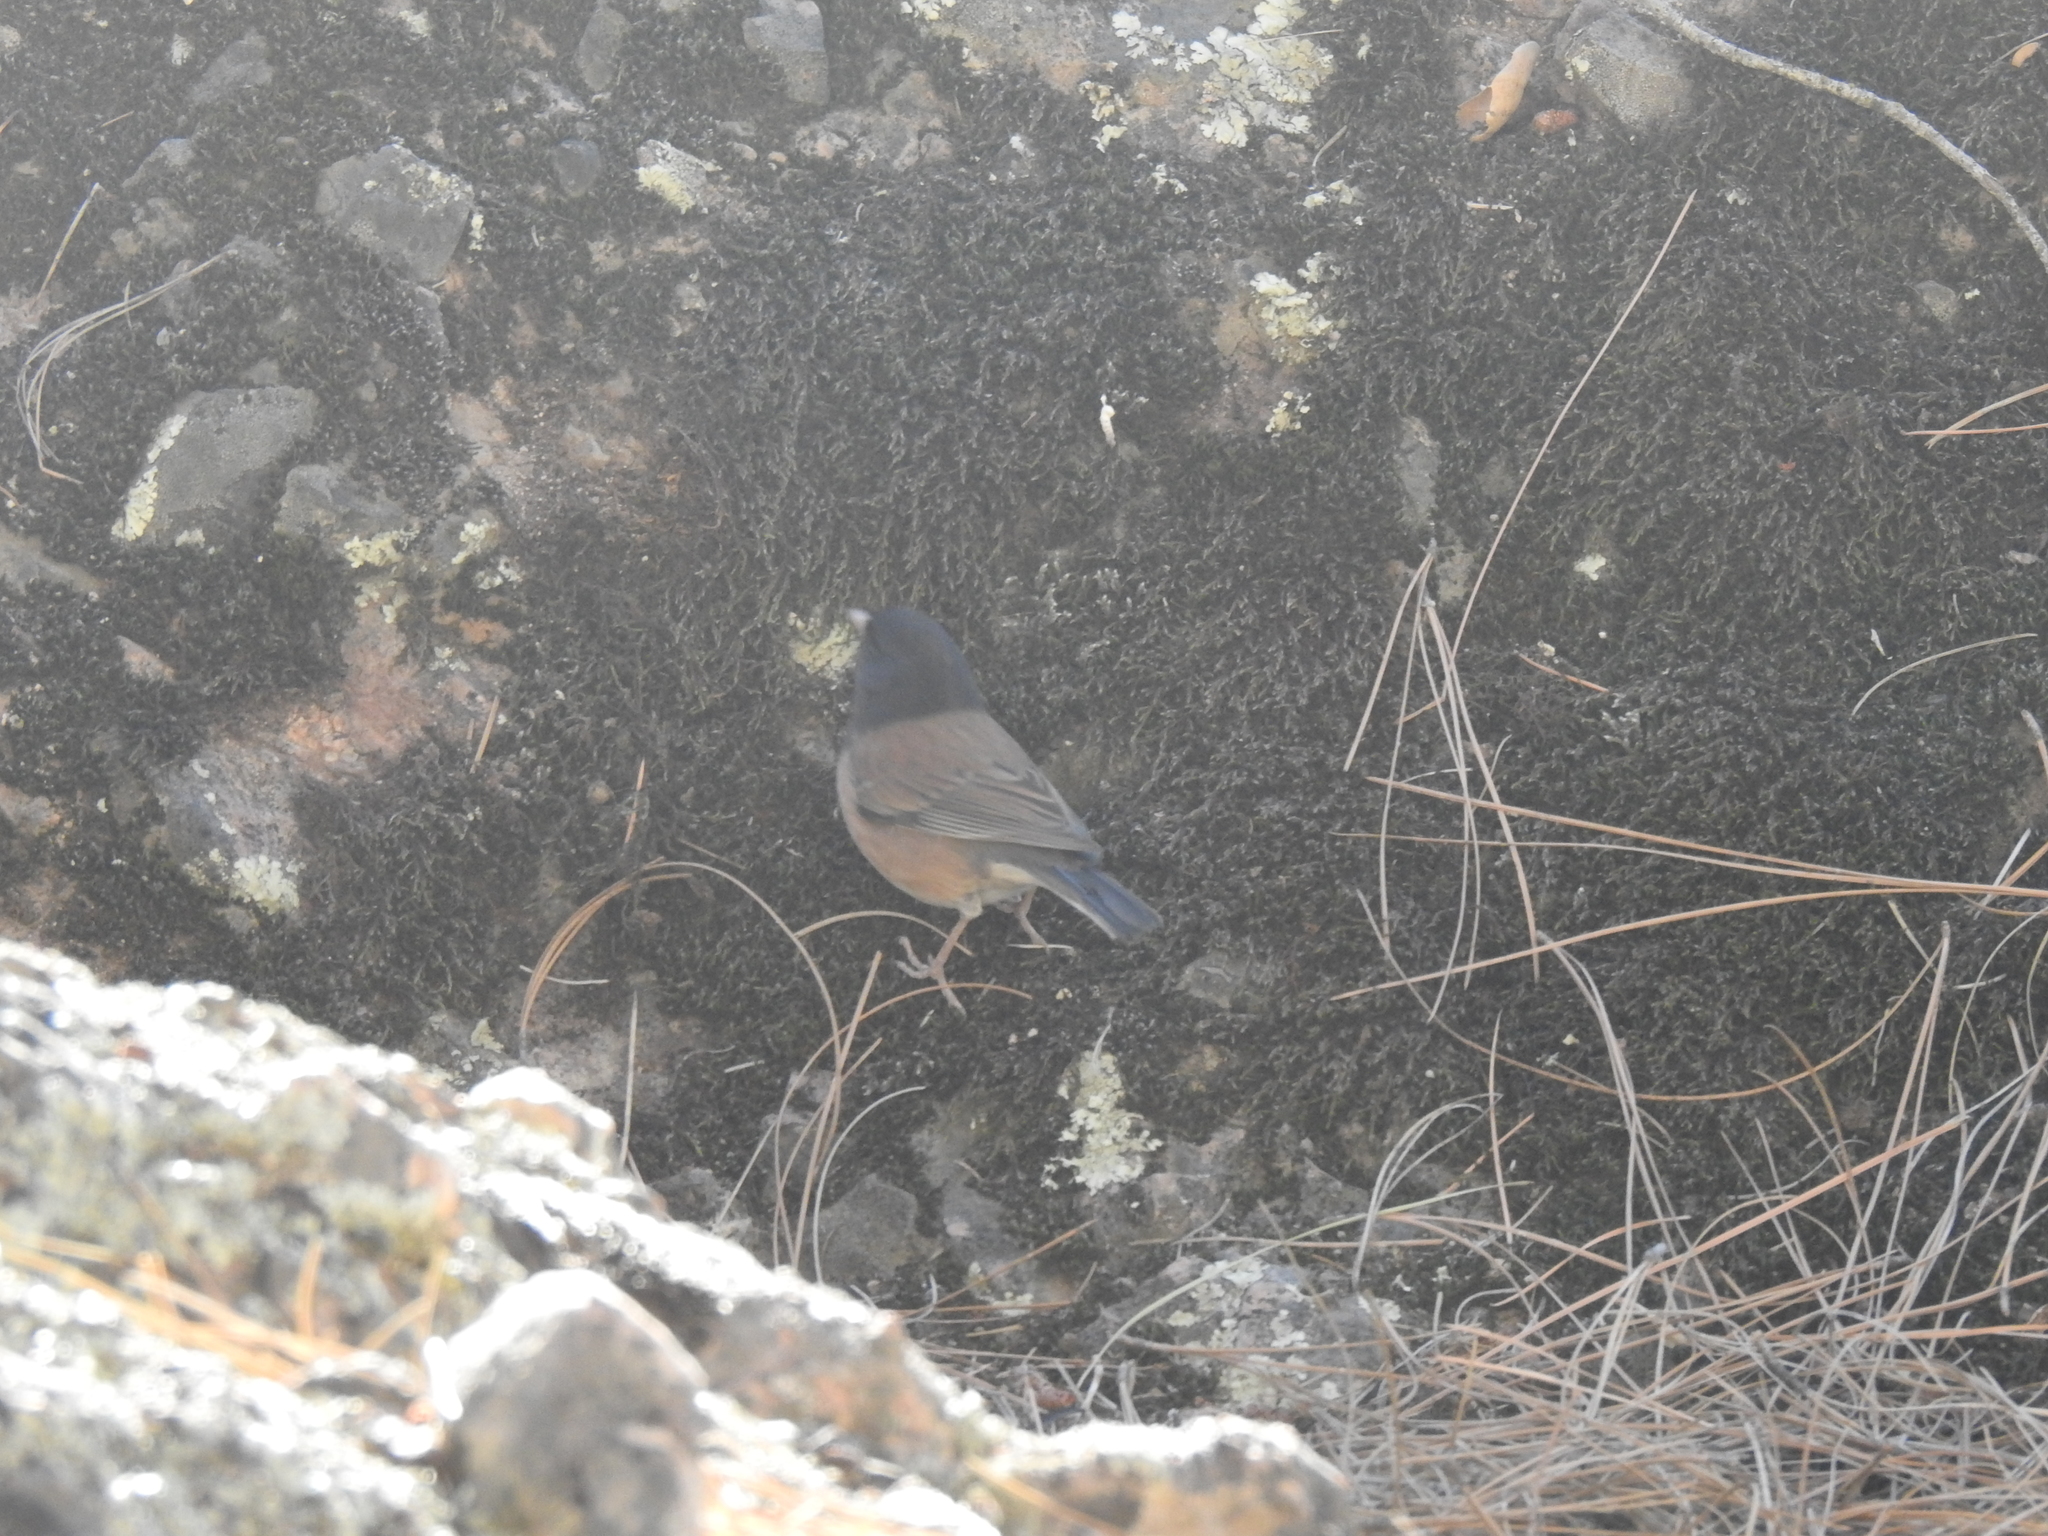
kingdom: Animalia
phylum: Chordata
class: Aves
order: Passeriformes
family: Passerellidae
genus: Junco
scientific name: Junco hyemalis
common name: Dark-eyed junco
